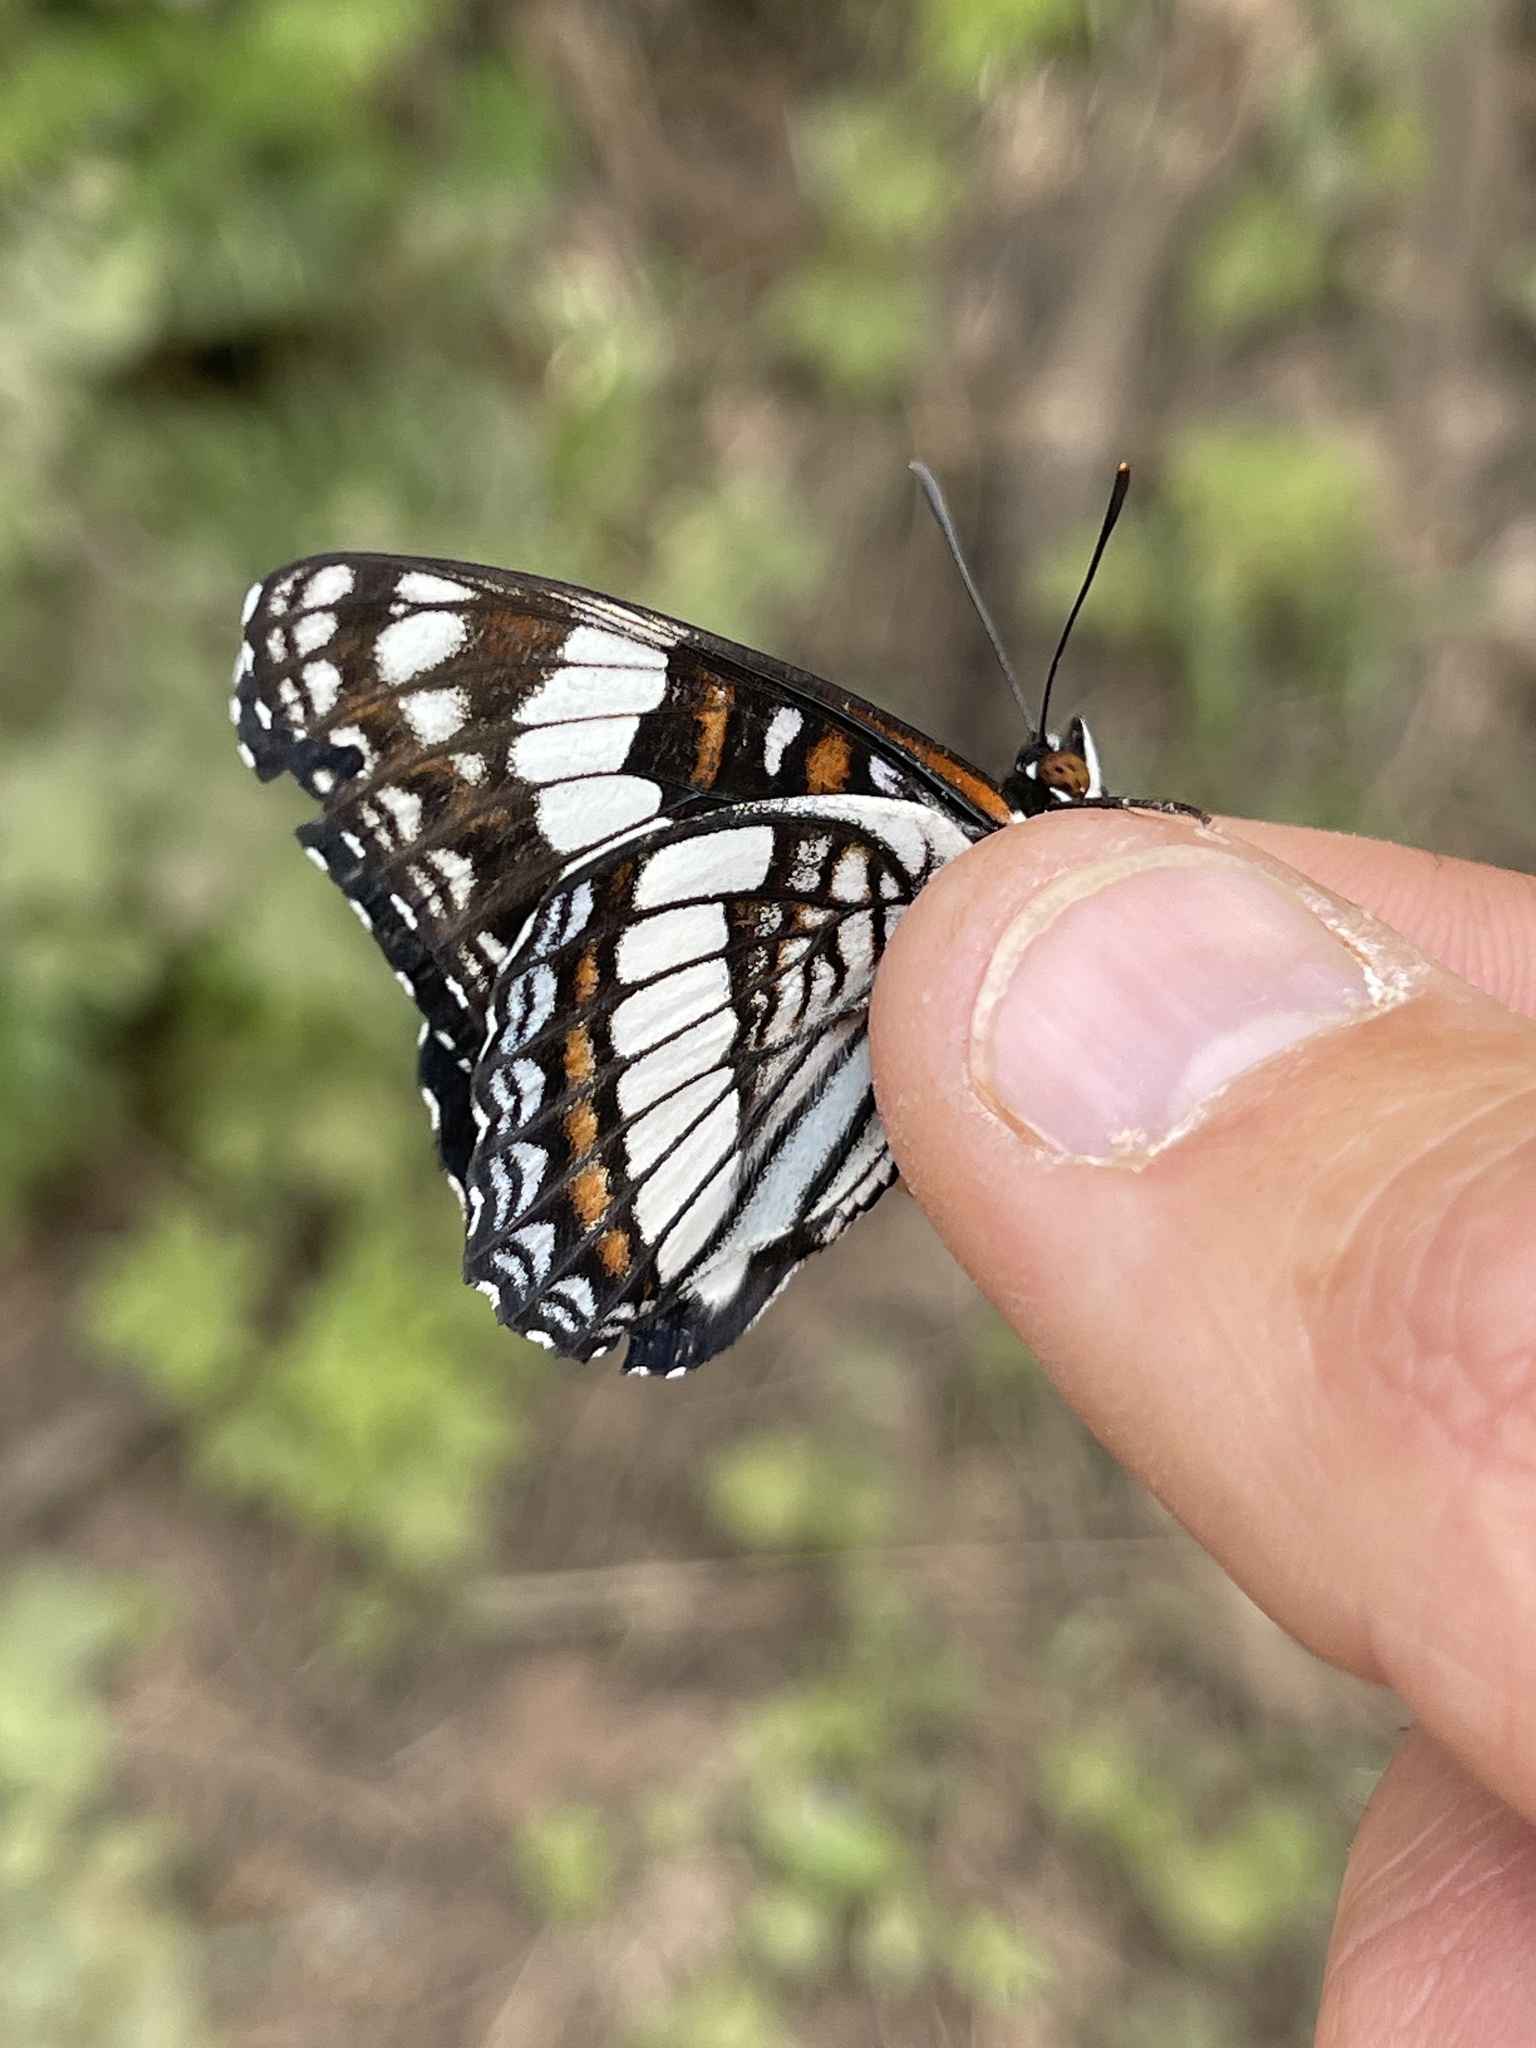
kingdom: Animalia
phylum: Arthropoda
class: Insecta
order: Lepidoptera
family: Nymphalidae
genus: Limenitis
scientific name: Limenitis weidemeyerii
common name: Weidemeyer's admiral
